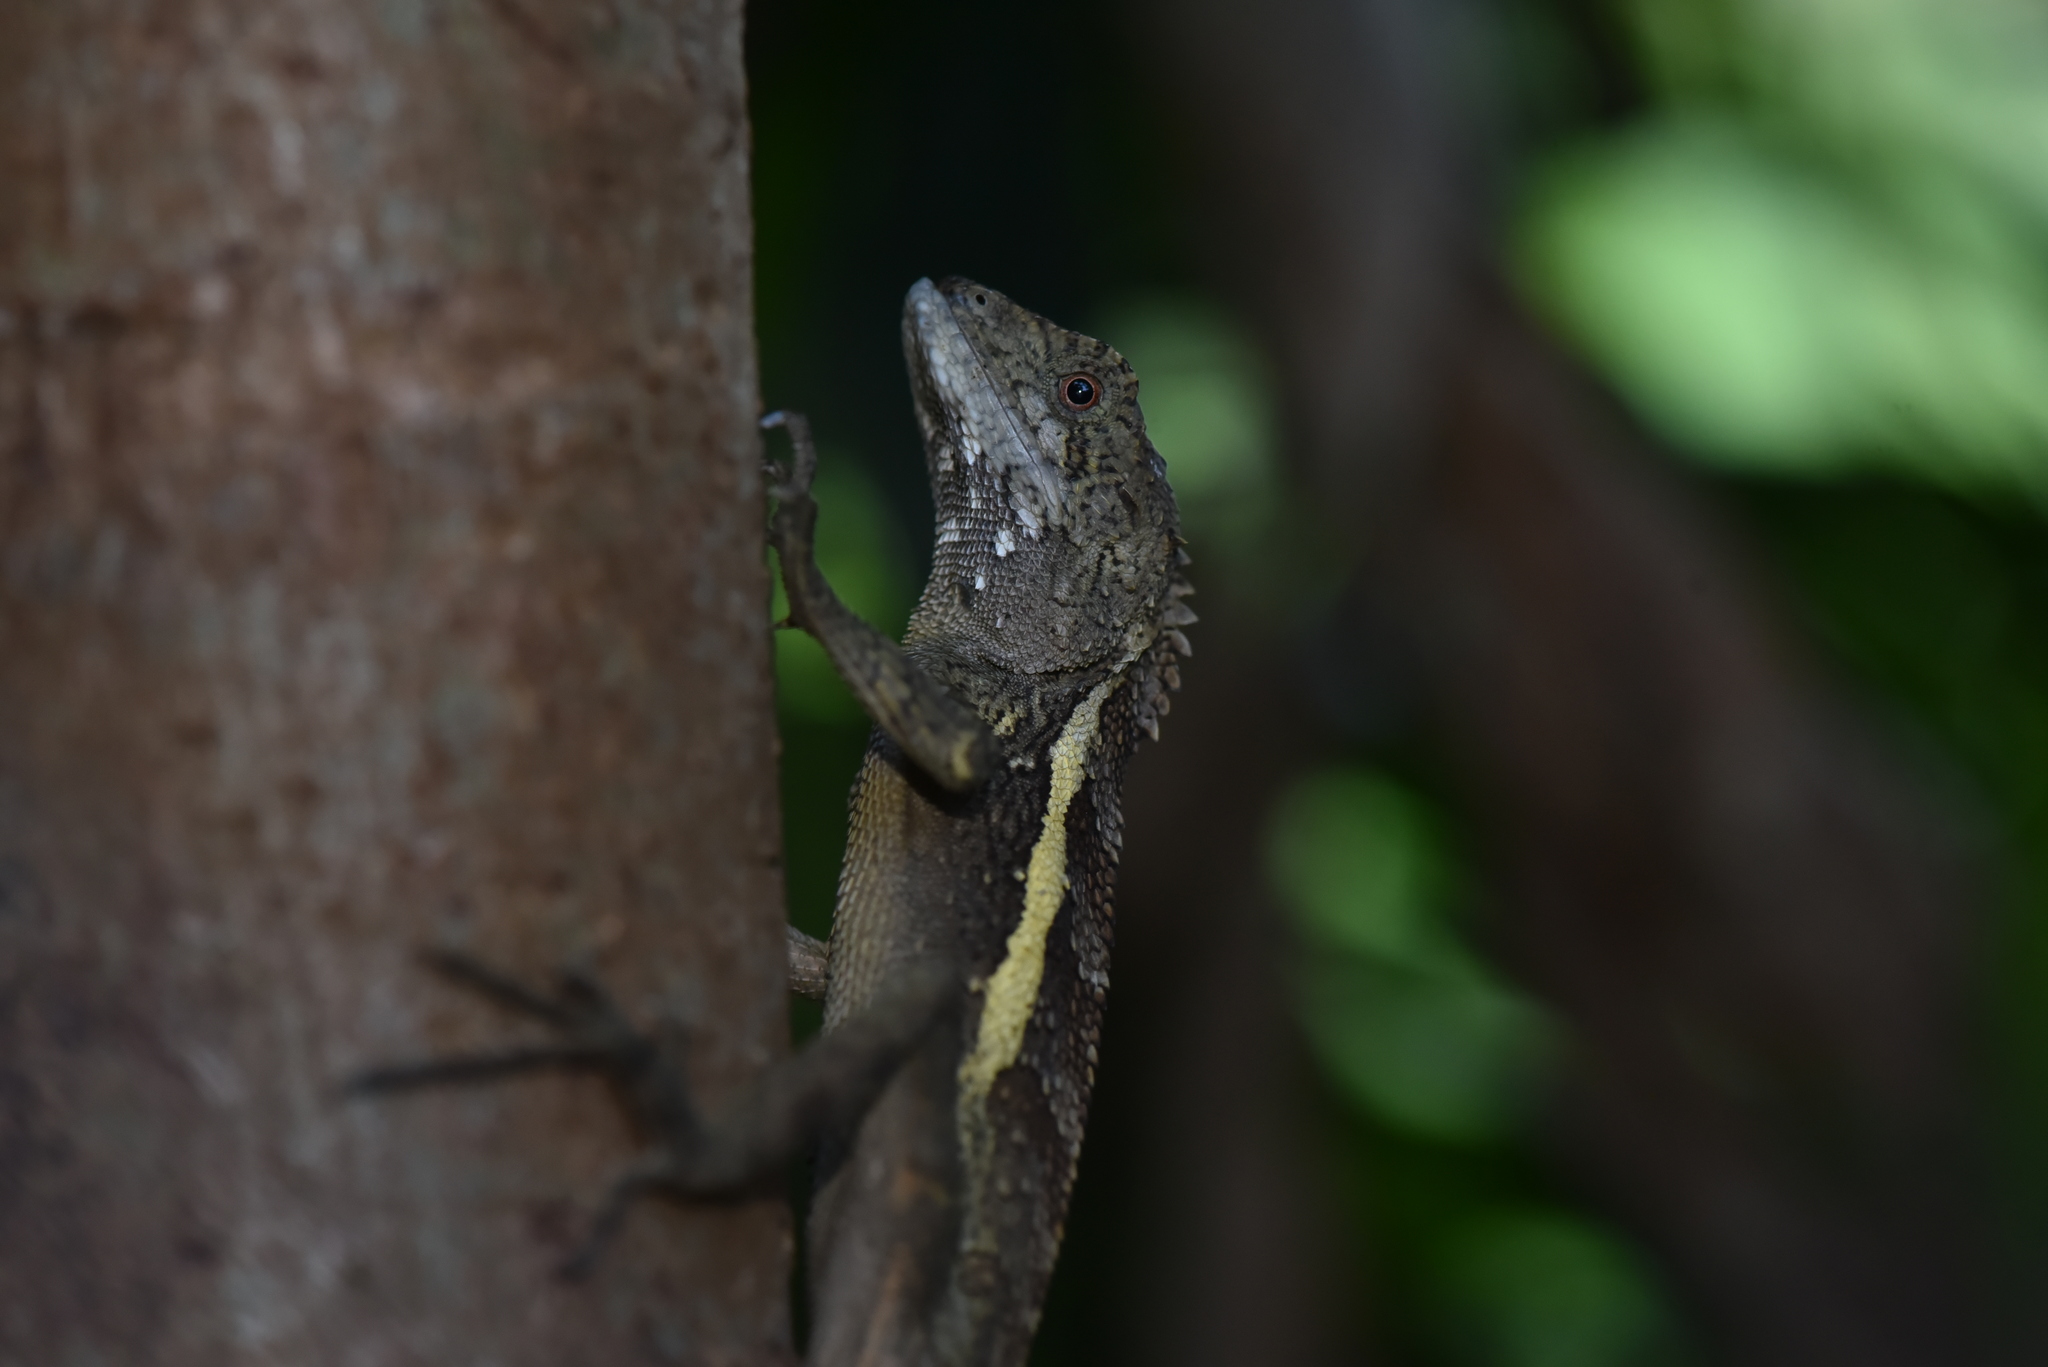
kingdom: Animalia
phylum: Chordata
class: Squamata
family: Agamidae
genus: Diploderma
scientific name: Diploderma swinhonis
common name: Taiwan japalure
